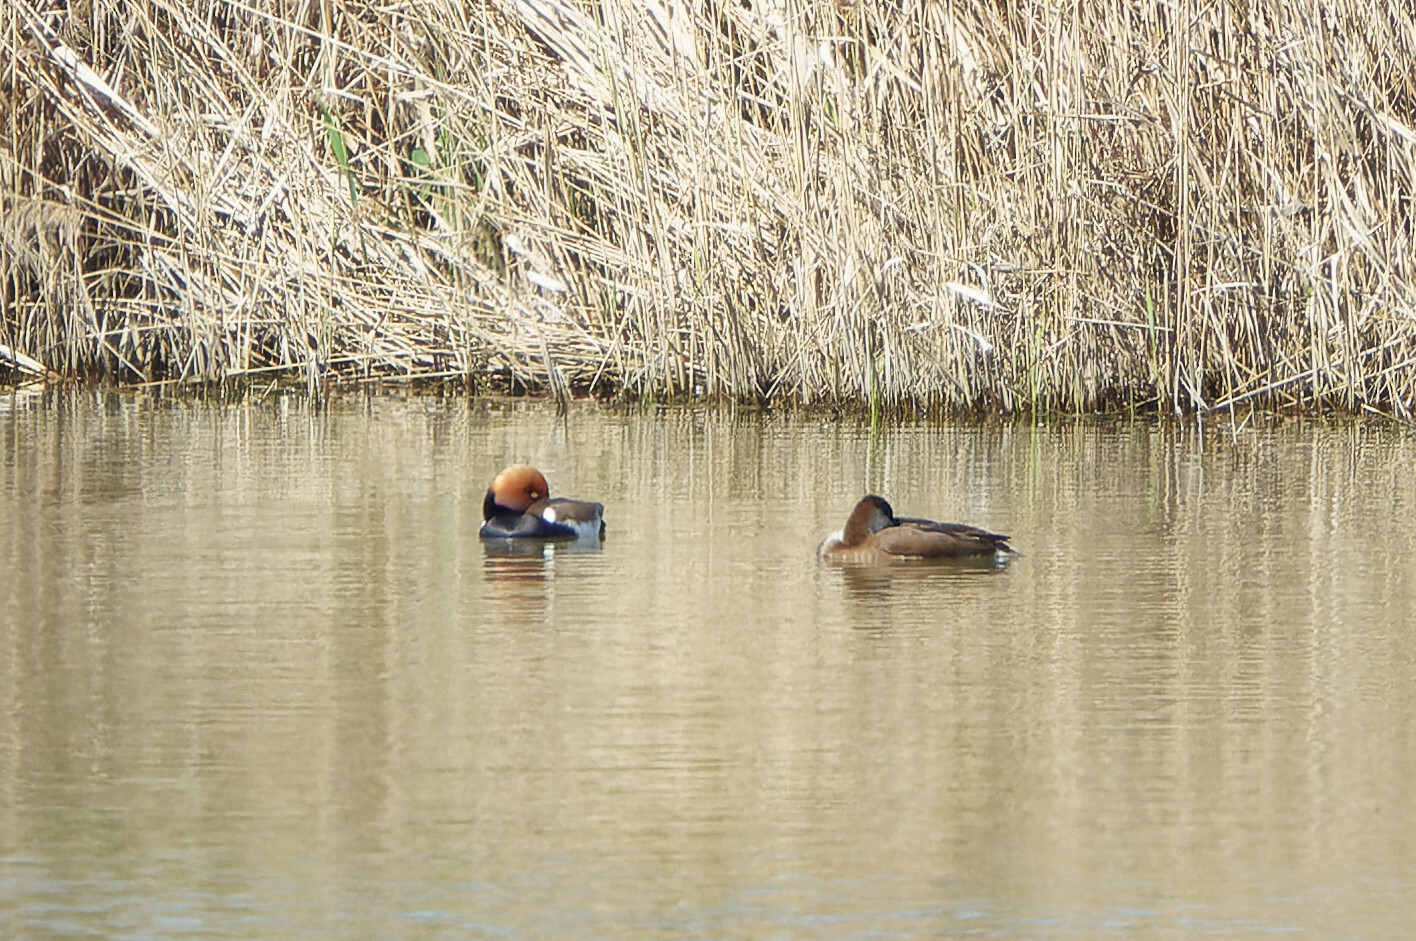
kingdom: Animalia
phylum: Chordata
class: Aves
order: Anseriformes
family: Anatidae
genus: Netta
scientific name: Netta rufina
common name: Red-crested pochard
